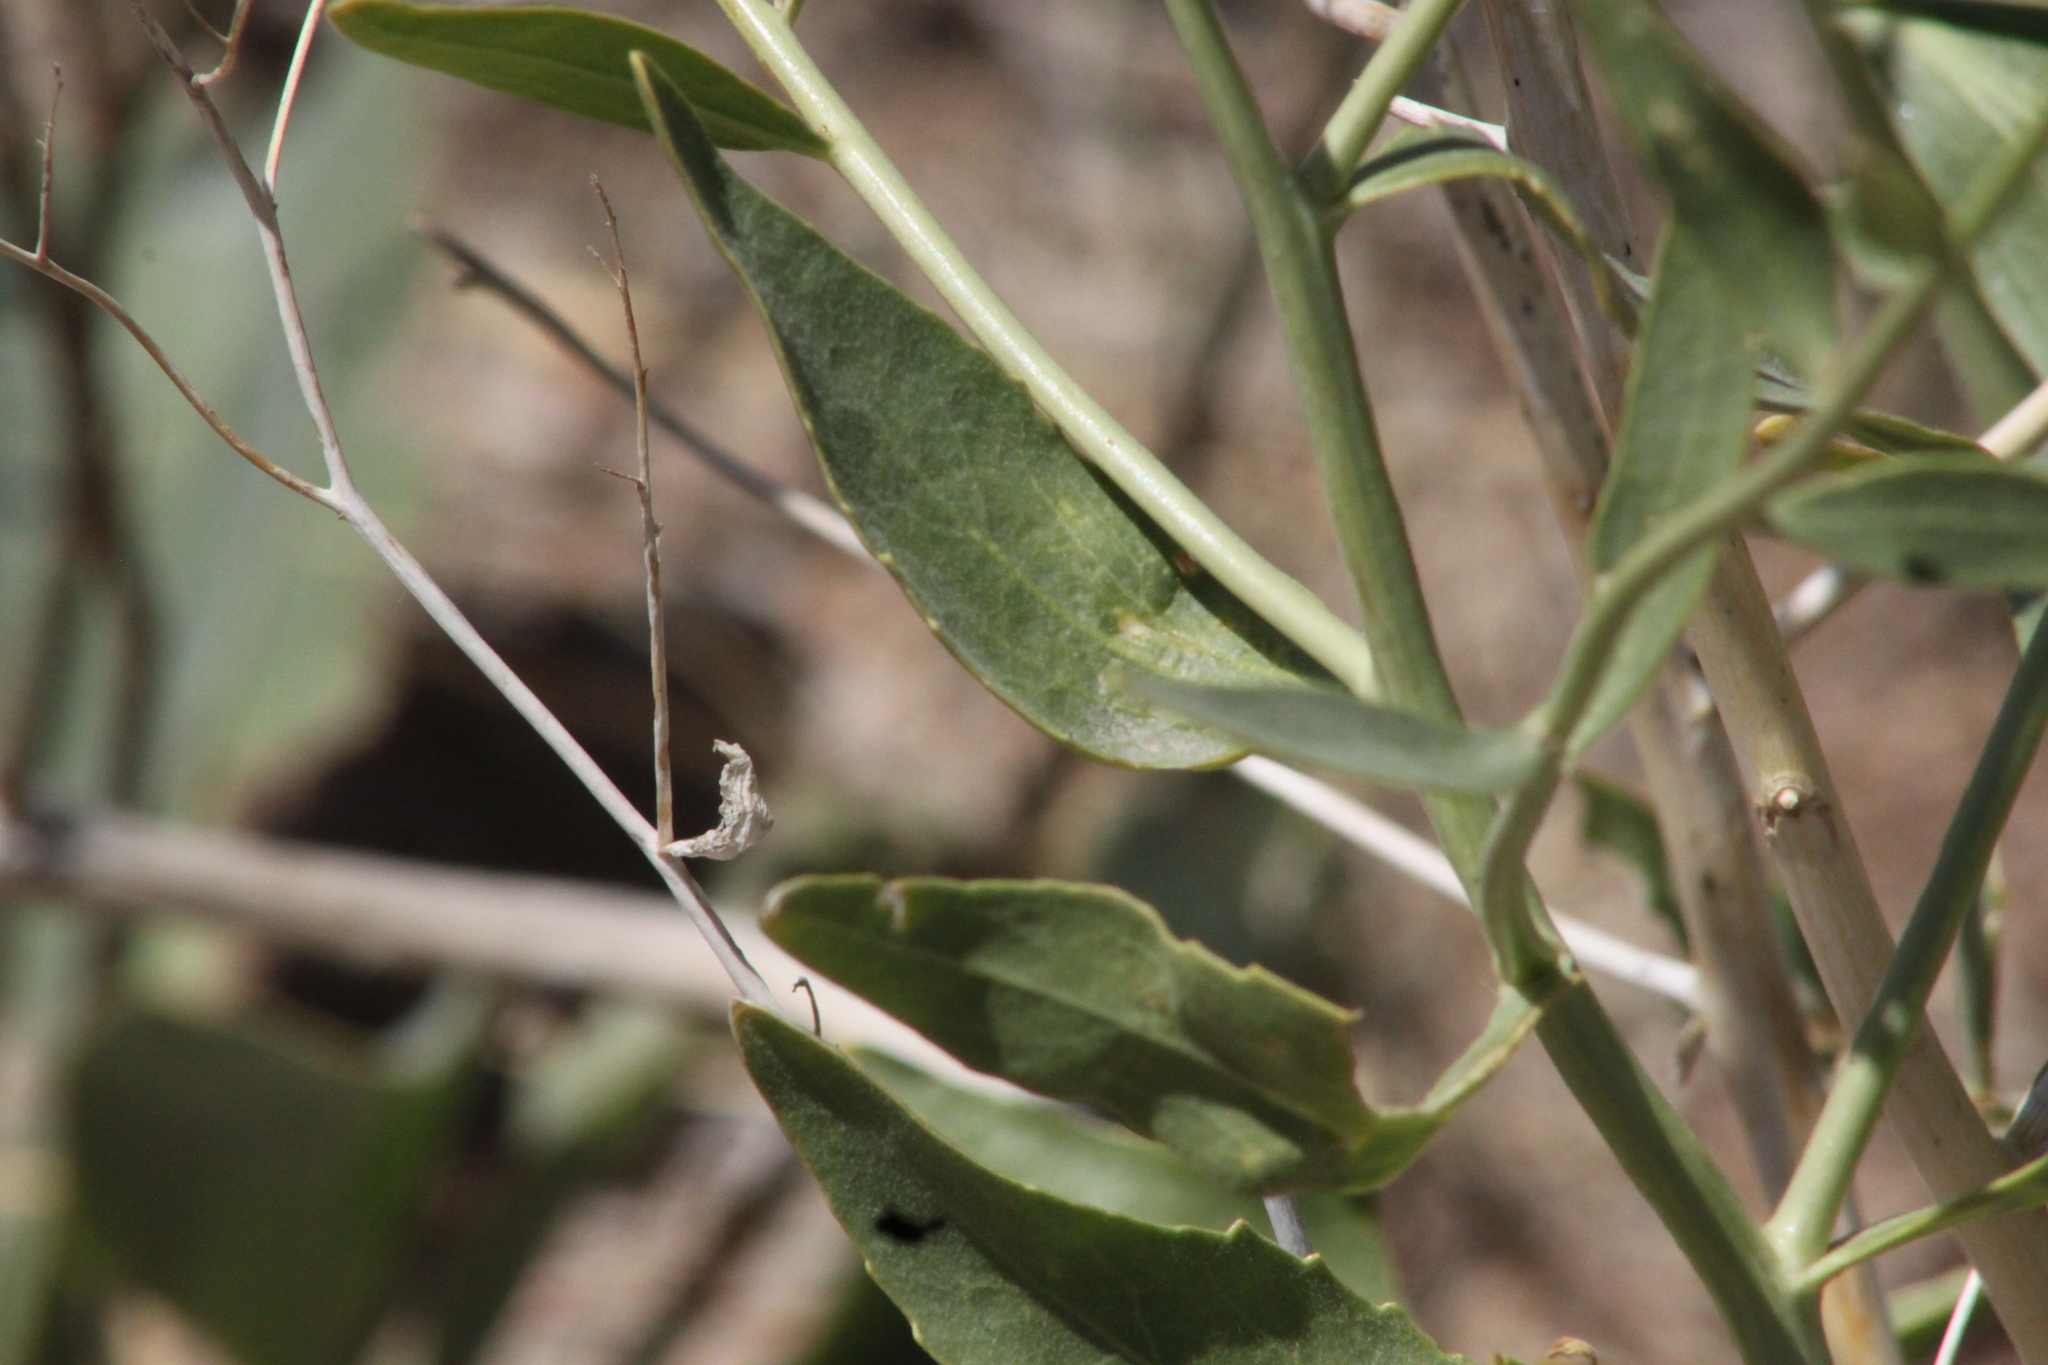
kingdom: Plantae
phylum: Tracheophyta
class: Magnoliopsida
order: Brassicales
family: Brassicaceae
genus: Lepidium
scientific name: Lepidium latifolium
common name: Dittander
